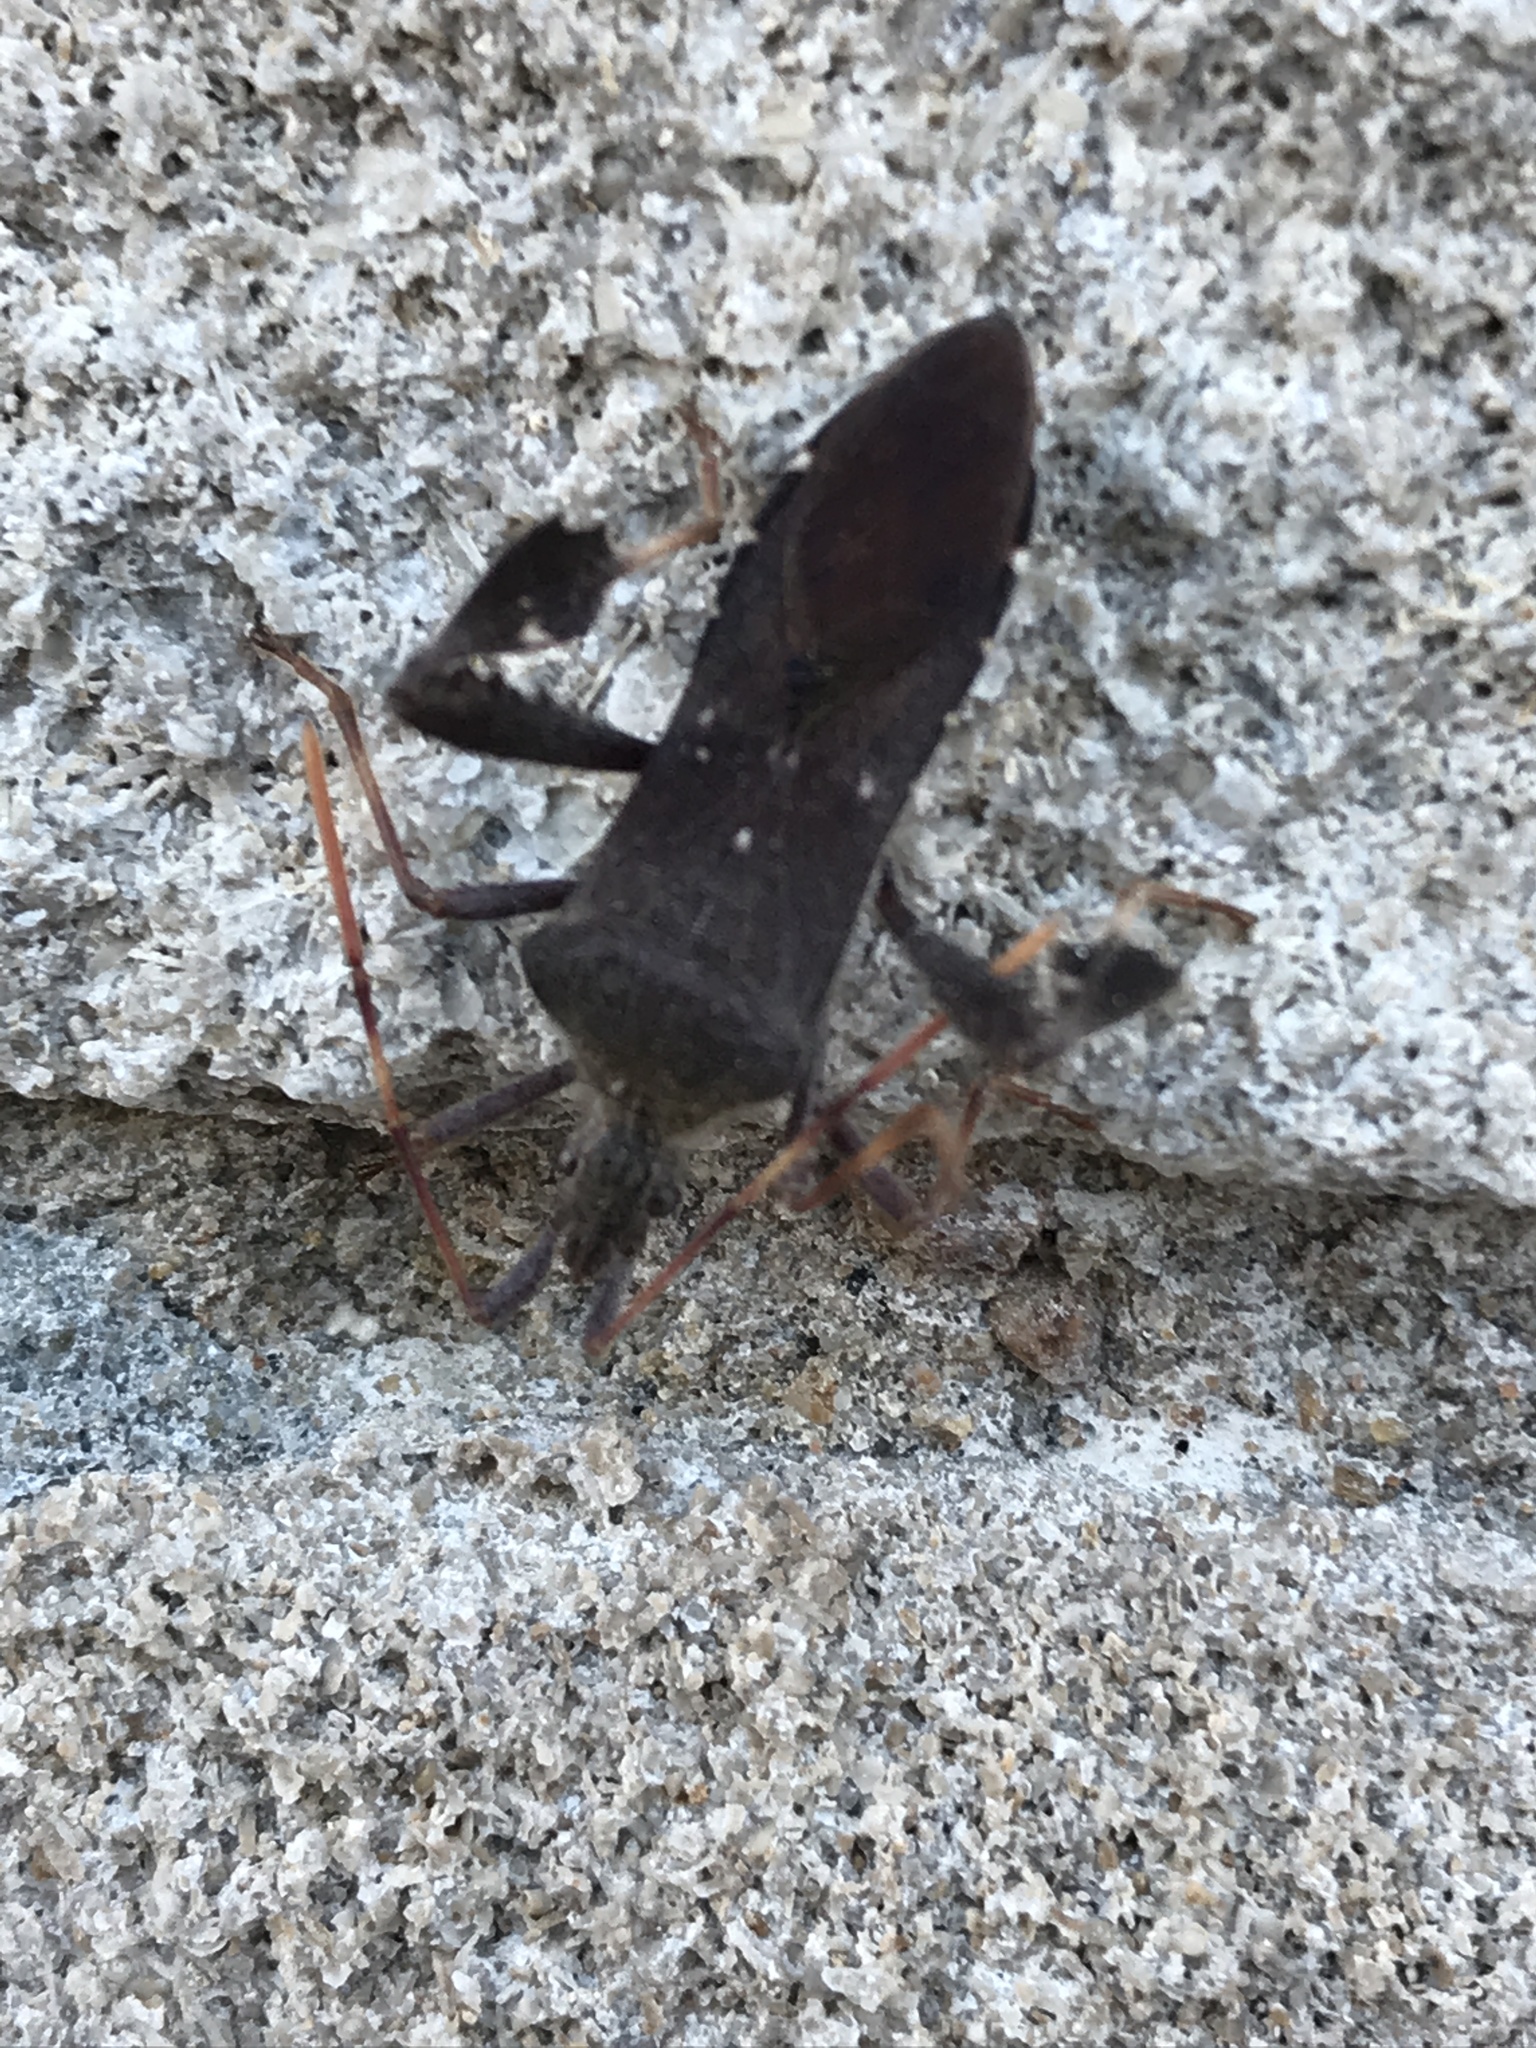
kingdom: Animalia
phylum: Arthropoda
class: Insecta
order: Hemiptera
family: Coreidae
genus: Leptoglossus
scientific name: Leptoglossus oppositus
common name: Northern leaf-footed bug
